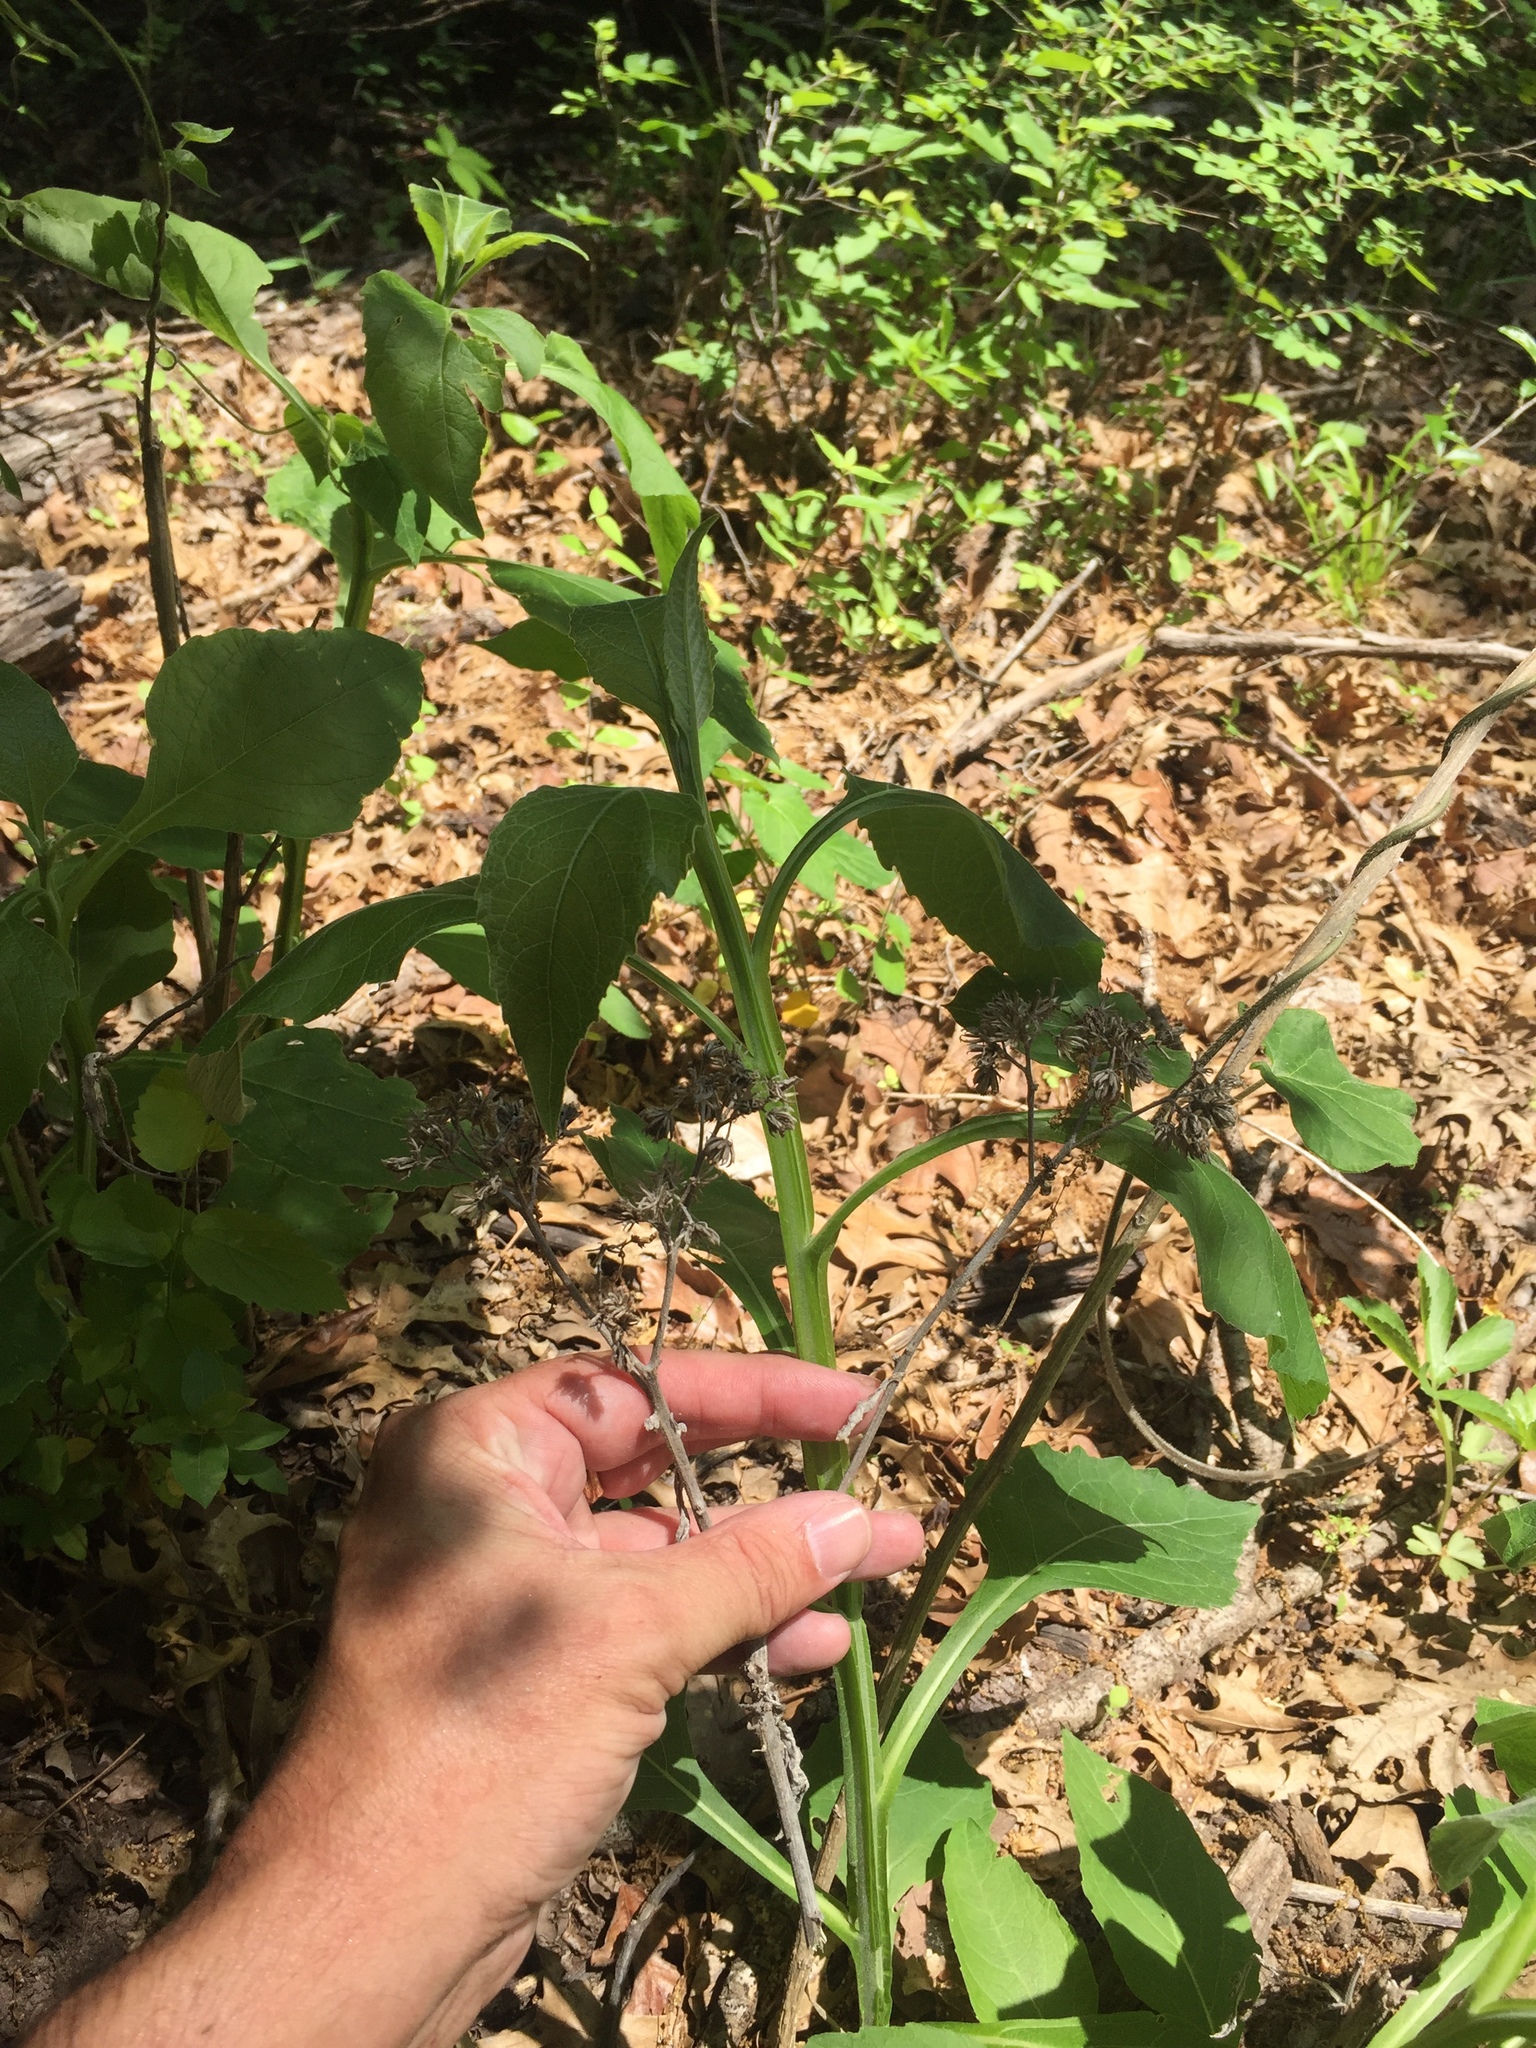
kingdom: Plantae
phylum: Tracheophyta
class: Magnoliopsida
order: Asterales
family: Asteraceae
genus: Verbesina
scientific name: Verbesina virginica
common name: Frostweed
